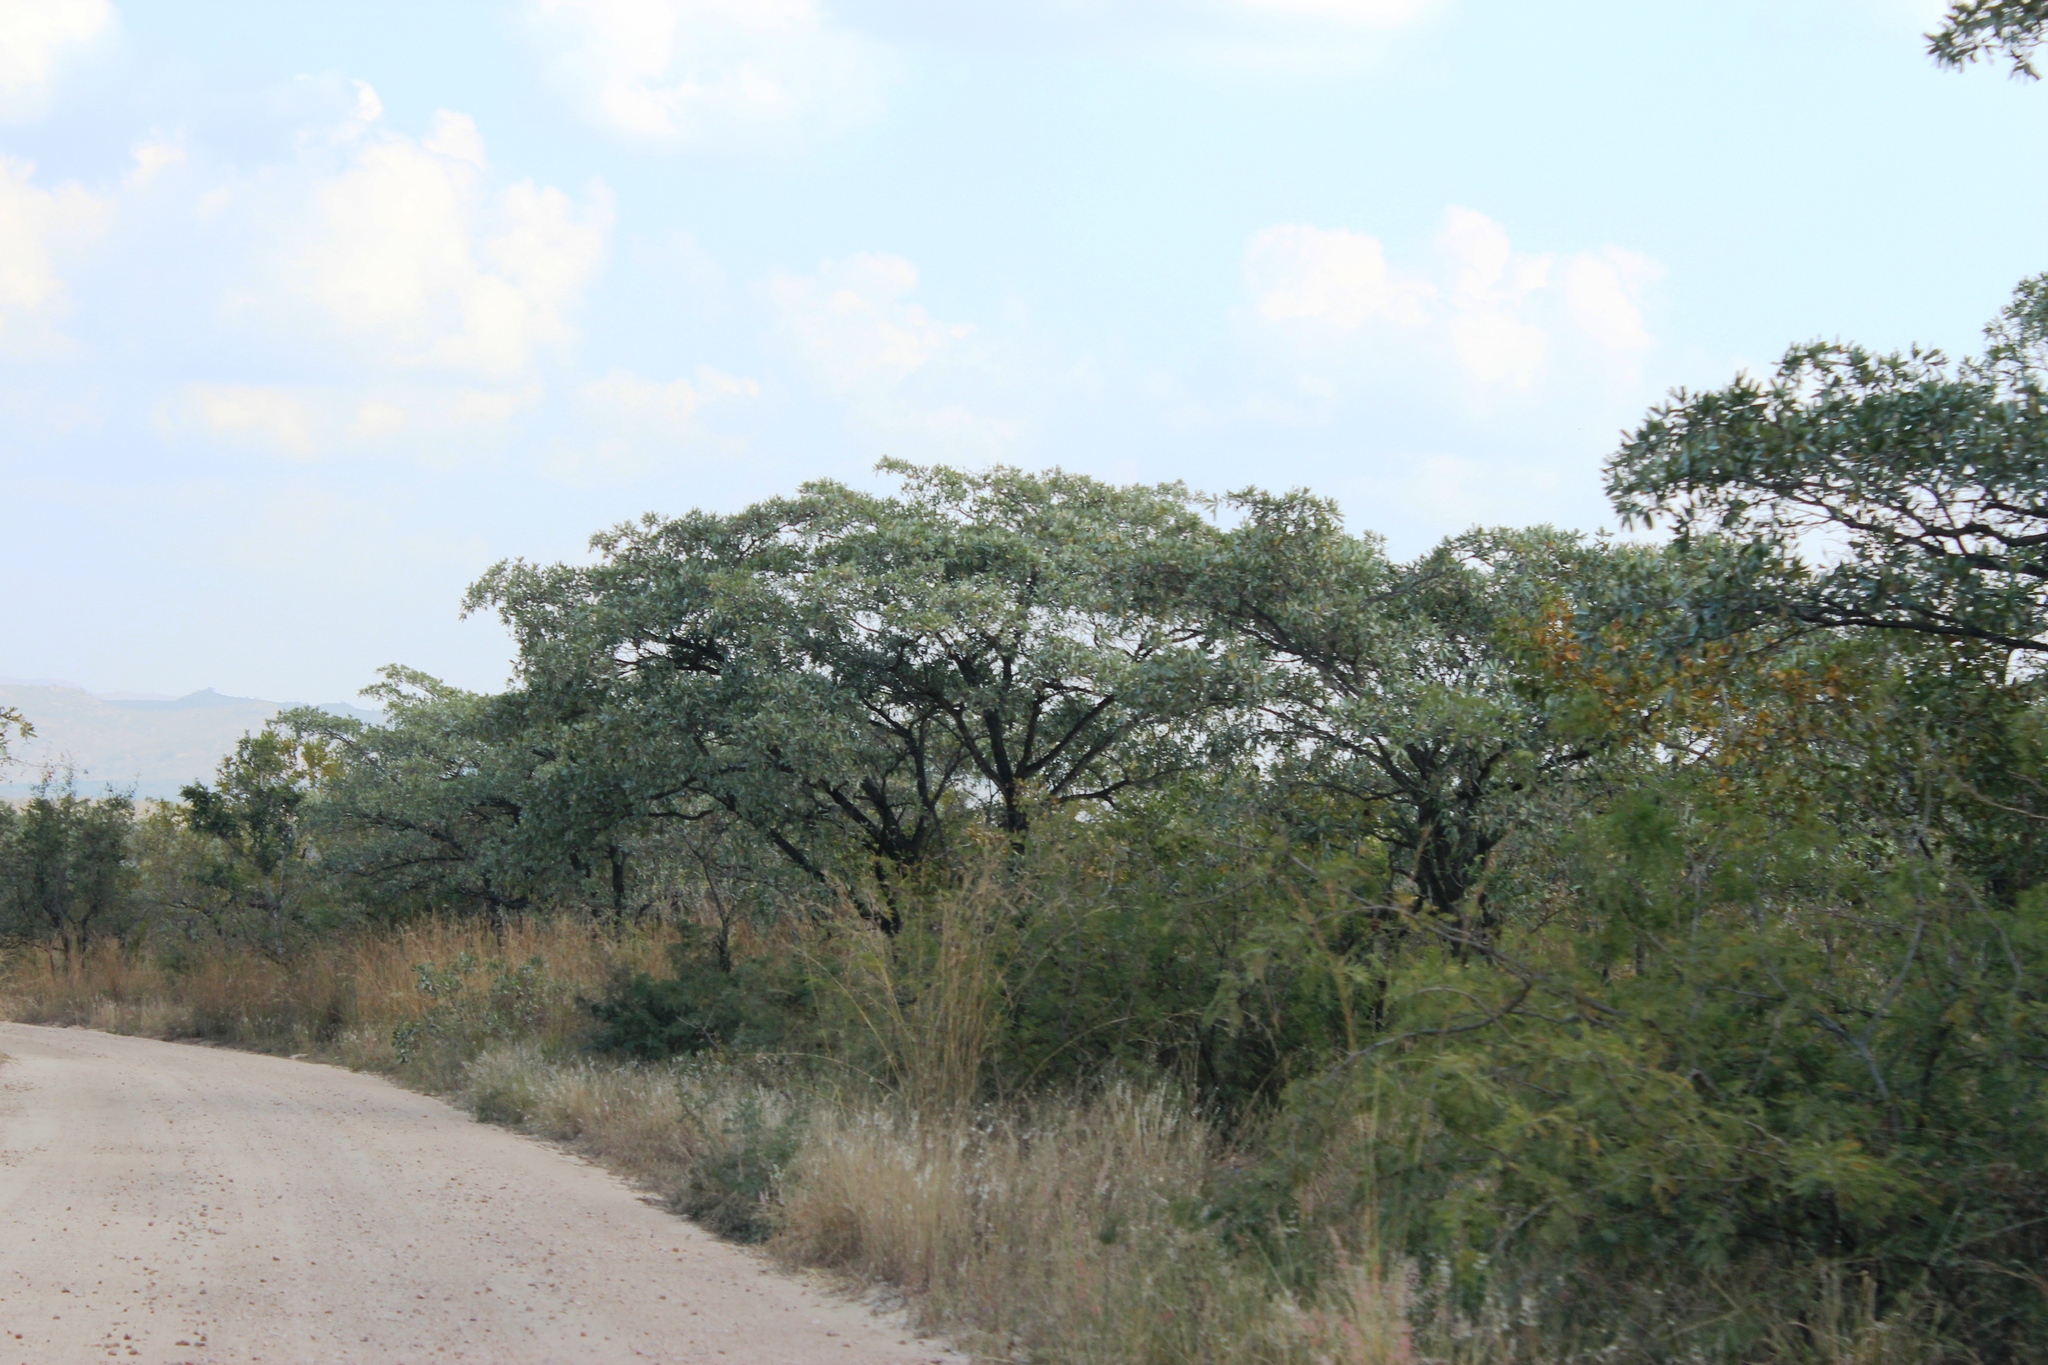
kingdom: Plantae
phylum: Tracheophyta
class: Magnoliopsida
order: Myrtales
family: Combretaceae
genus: Terminalia
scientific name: Terminalia sericea
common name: Clusterleaf
